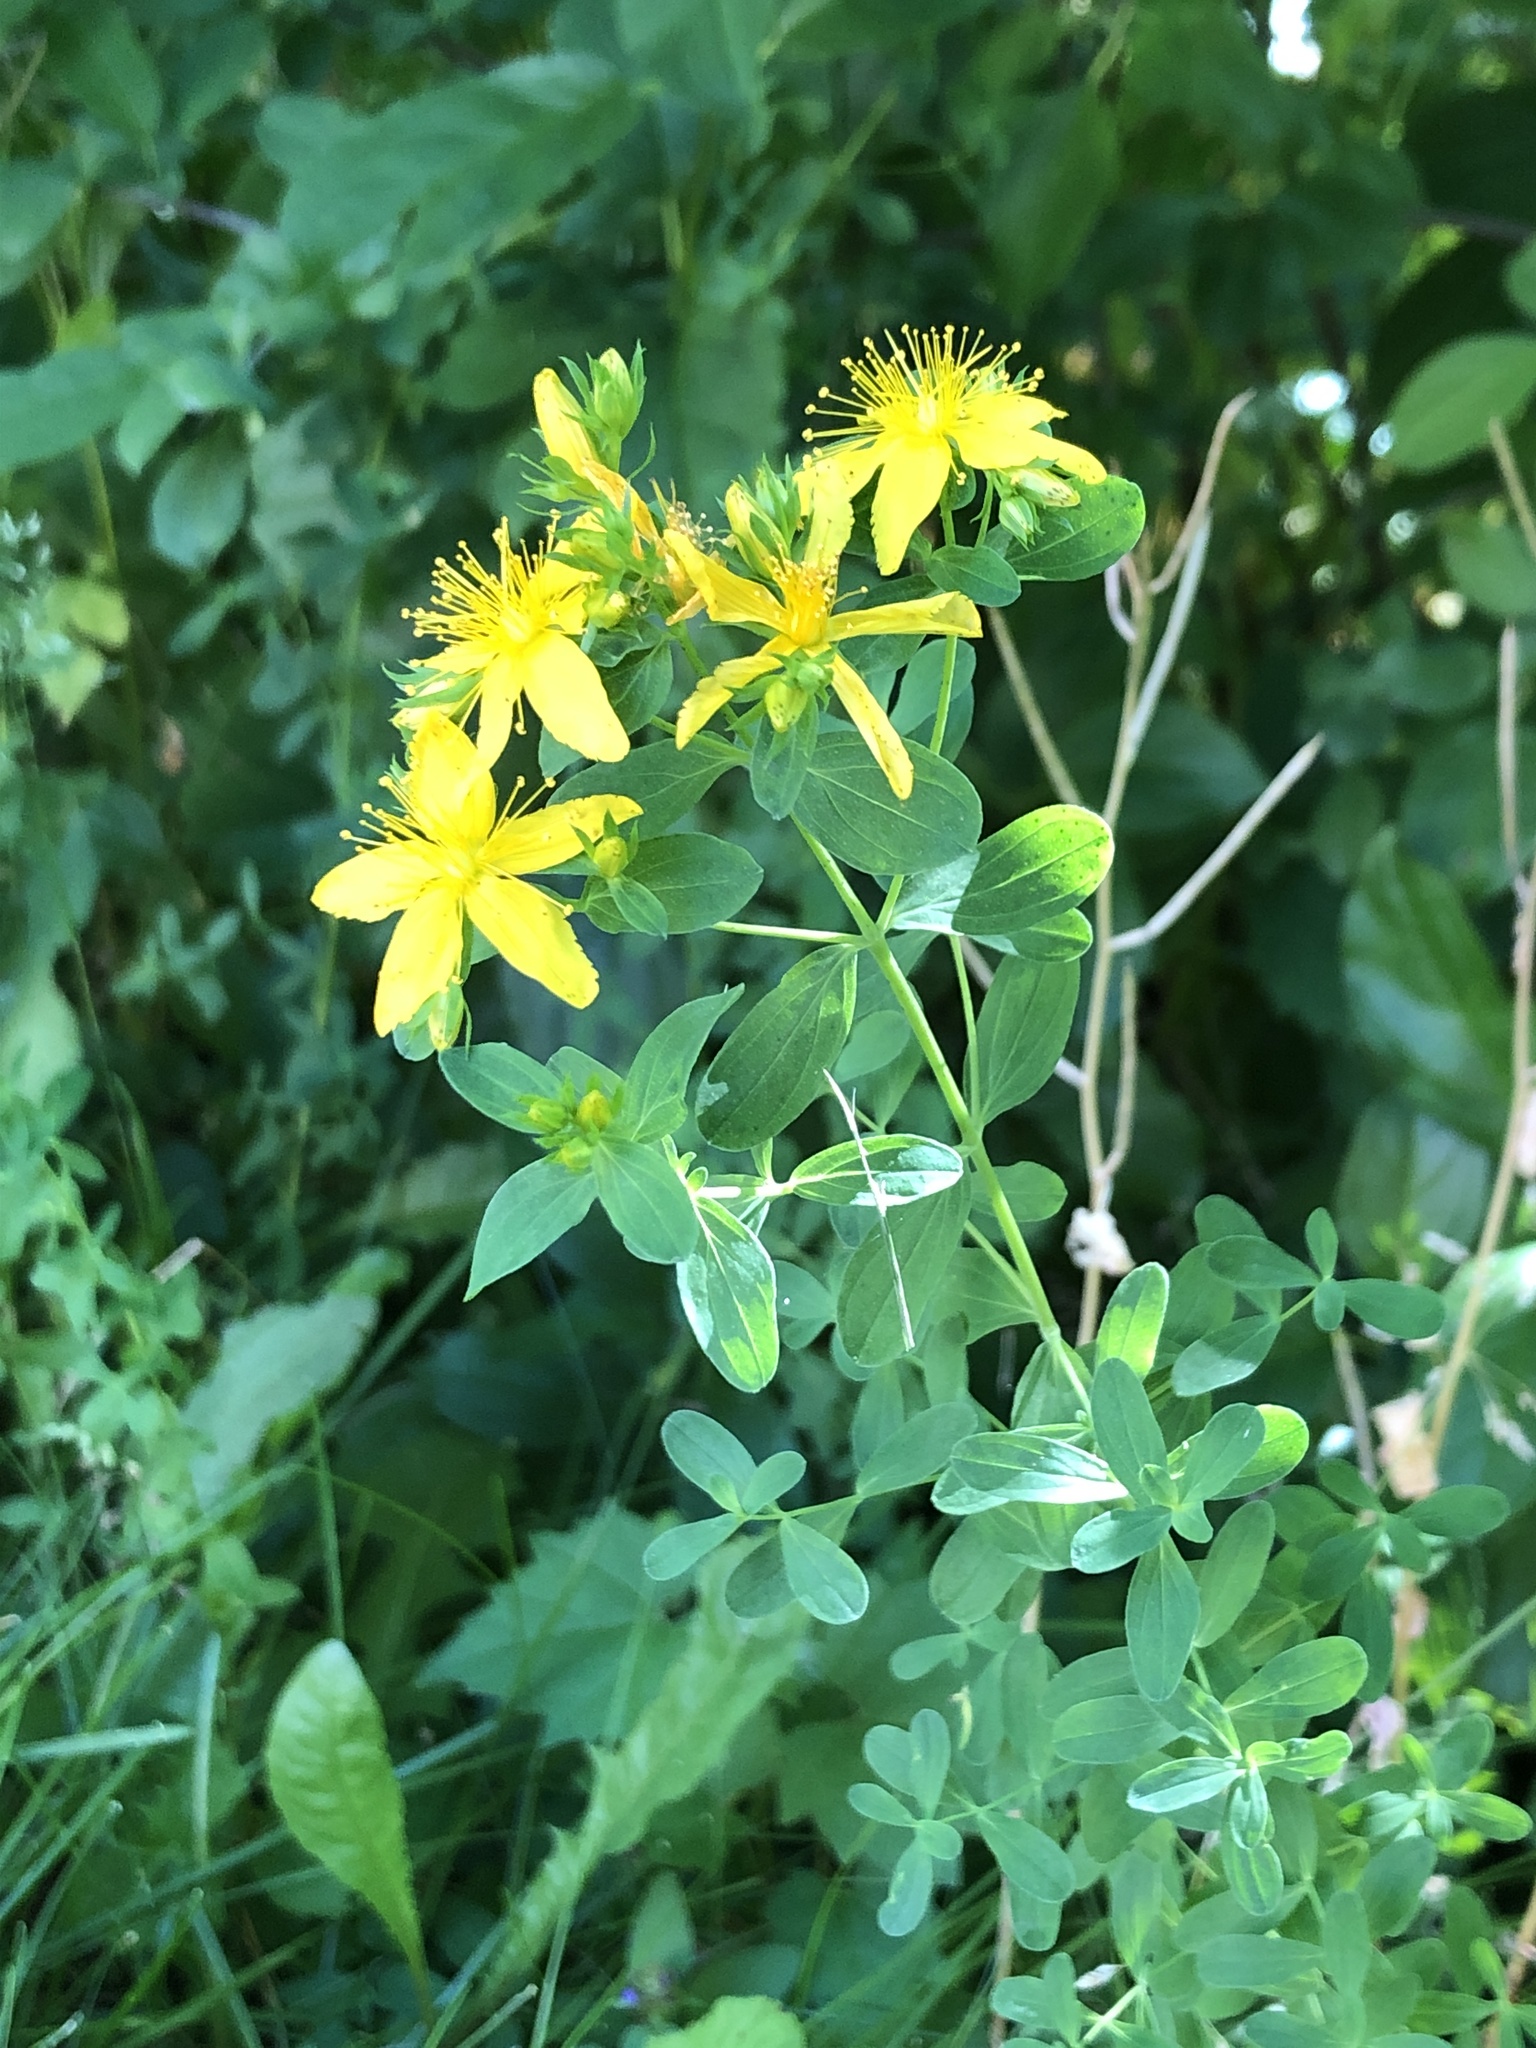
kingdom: Plantae
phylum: Tracheophyta
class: Magnoliopsida
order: Malpighiales
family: Hypericaceae
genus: Hypericum
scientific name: Hypericum perforatum
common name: Common st. johnswort
